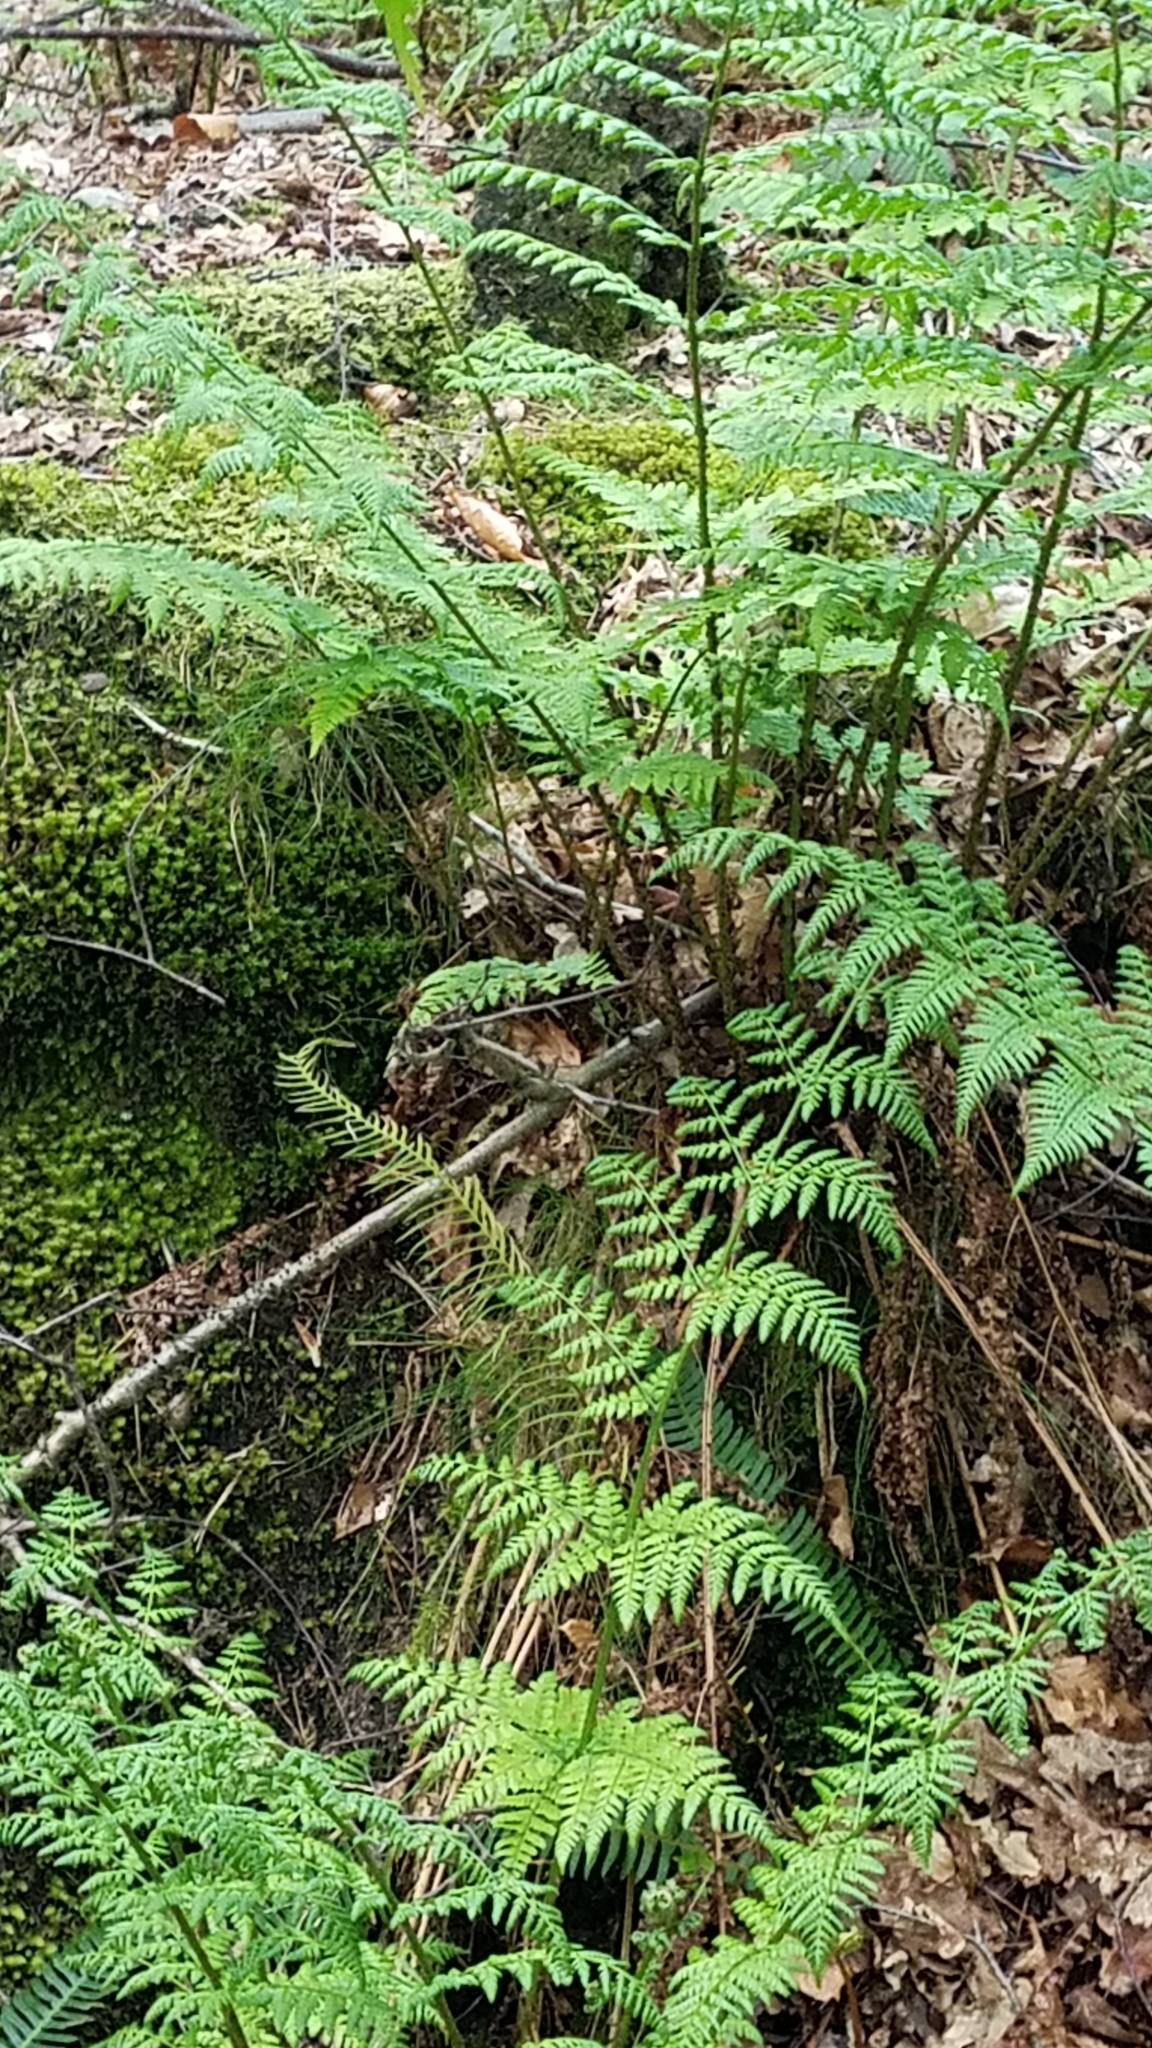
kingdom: Plantae
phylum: Tracheophyta
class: Polypodiopsida
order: Polypodiales
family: Dryopteridaceae
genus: Dryopteris
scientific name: Dryopteris dilatata
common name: Broad buckler-fern
